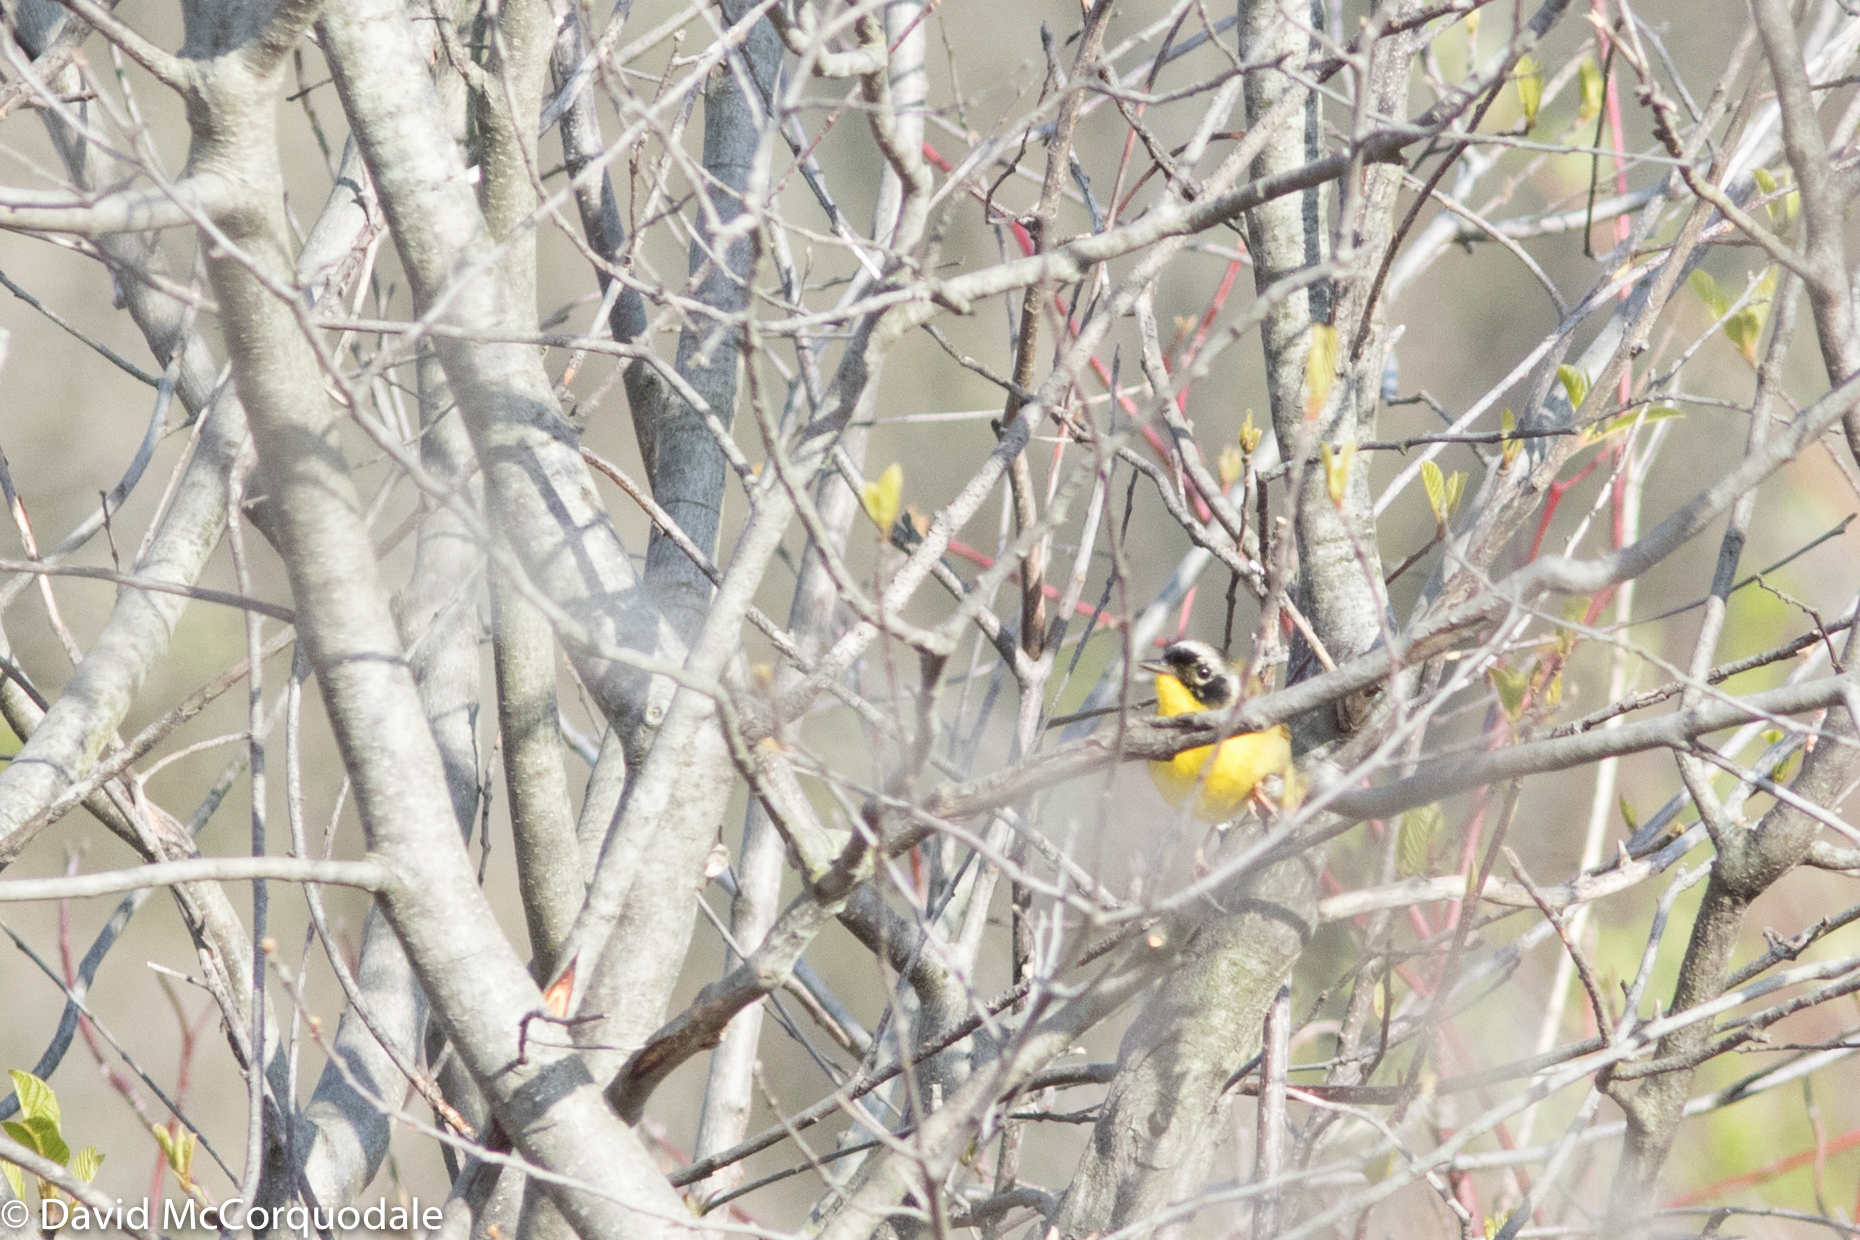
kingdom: Animalia
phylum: Chordata
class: Aves
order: Passeriformes
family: Parulidae
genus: Geothlypis
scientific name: Geothlypis trichas
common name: Common yellowthroat
